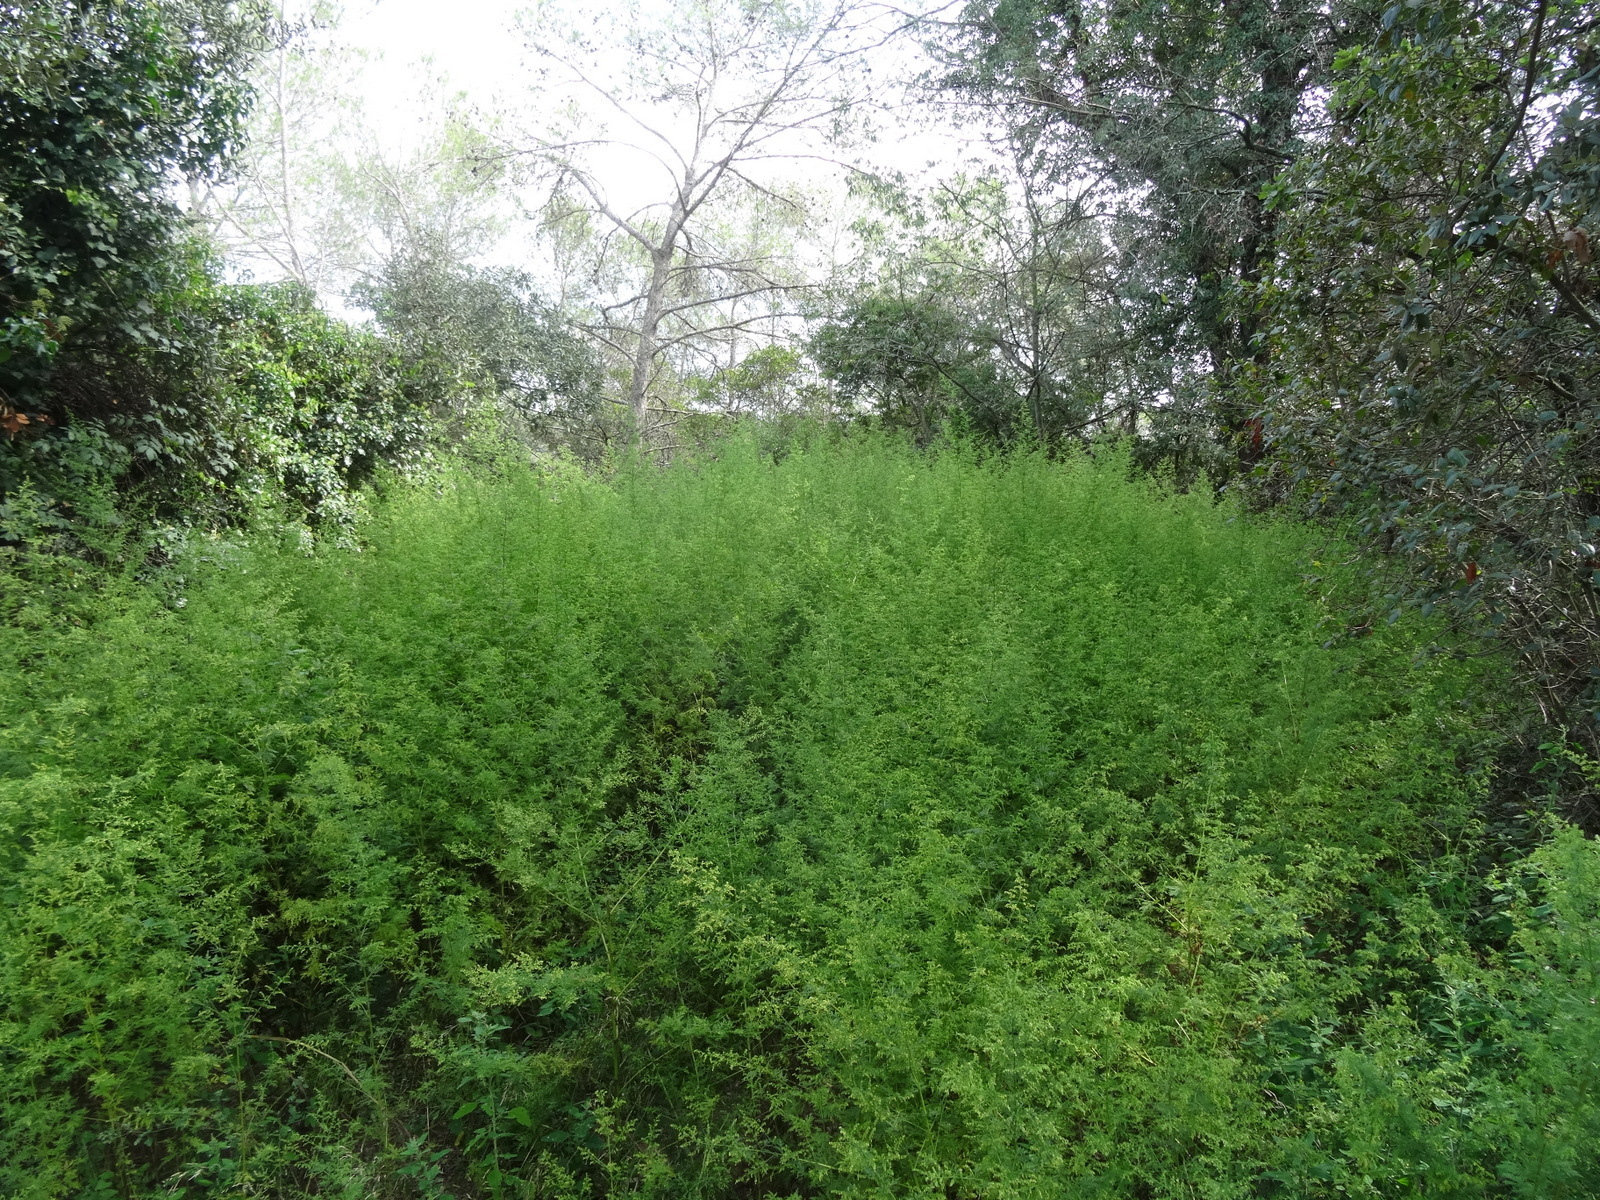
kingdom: Plantae
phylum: Tracheophyta
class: Magnoliopsida
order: Asterales
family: Asteraceae
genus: Artemisia
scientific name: Artemisia annua
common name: Sweet sagewort
